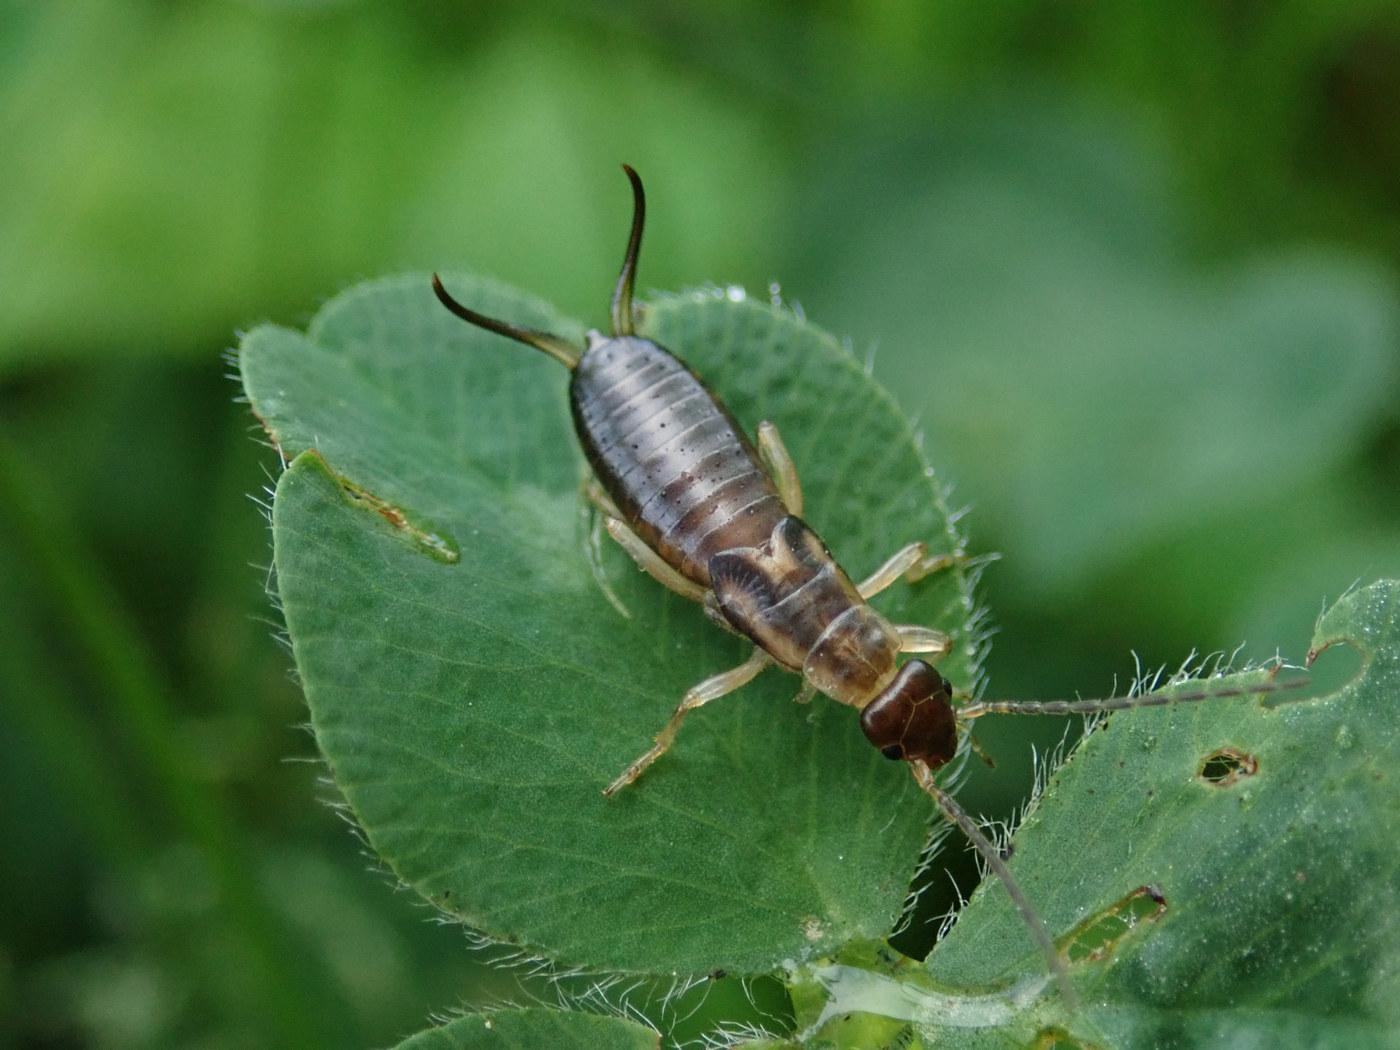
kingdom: Animalia
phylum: Arthropoda
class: Insecta
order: Dermaptera
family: Forficulidae
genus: Forficula
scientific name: Forficula
